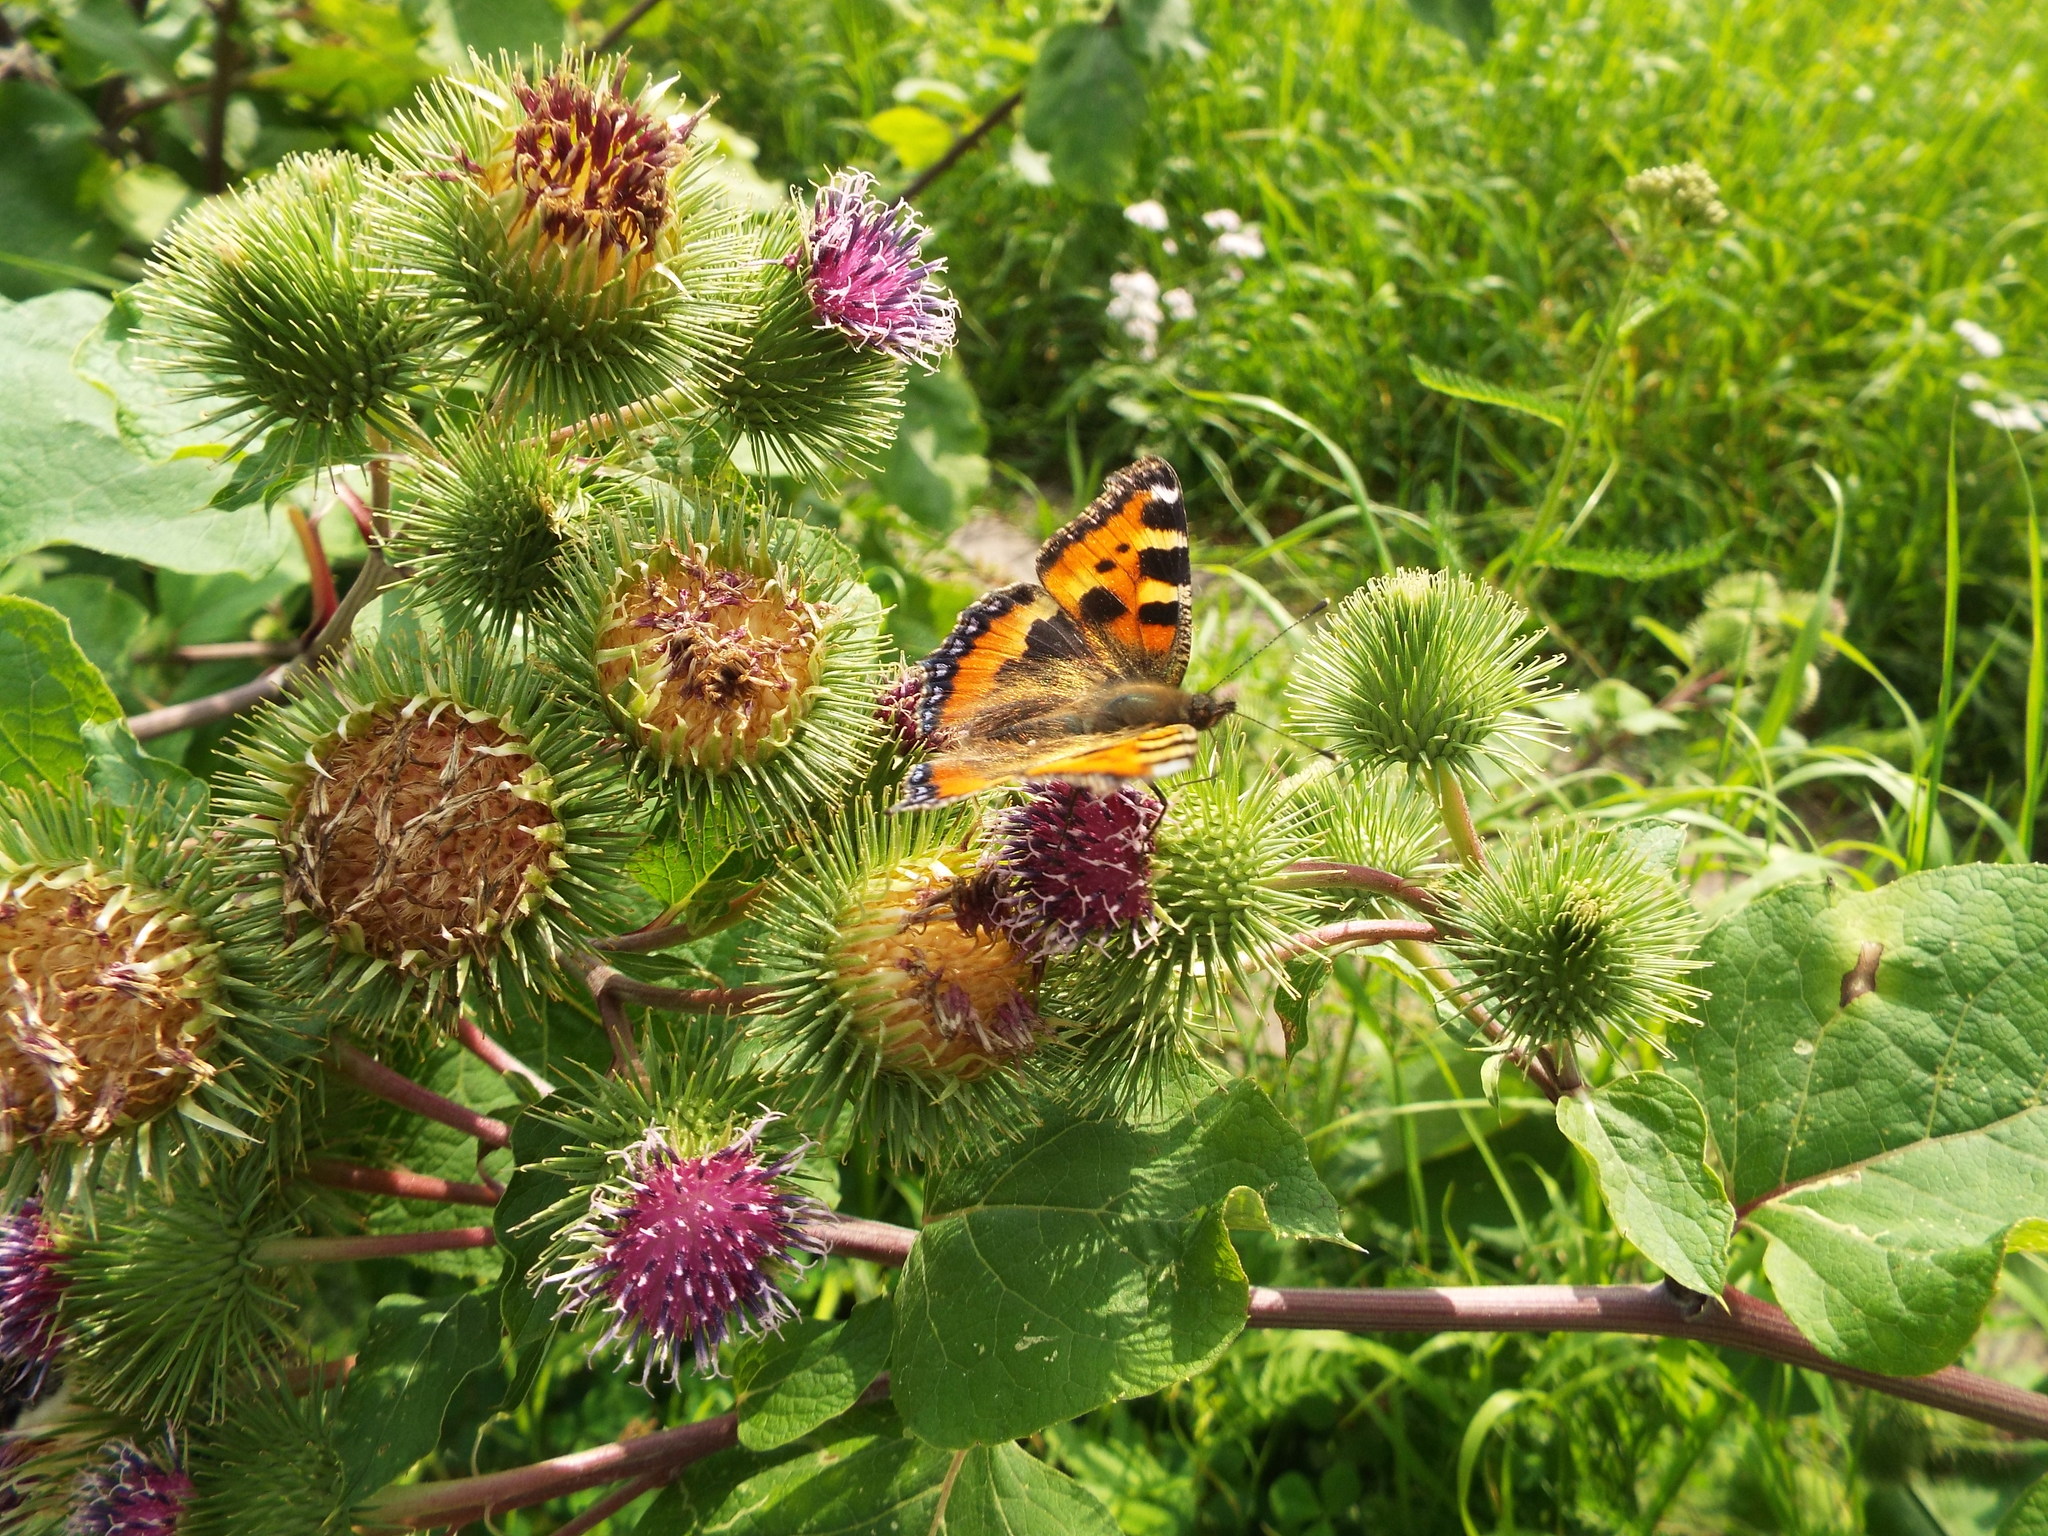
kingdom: Animalia
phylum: Arthropoda
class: Insecta
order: Lepidoptera
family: Nymphalidae
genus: Aglais
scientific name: Aglais urticae
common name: Small tortoiseshell
